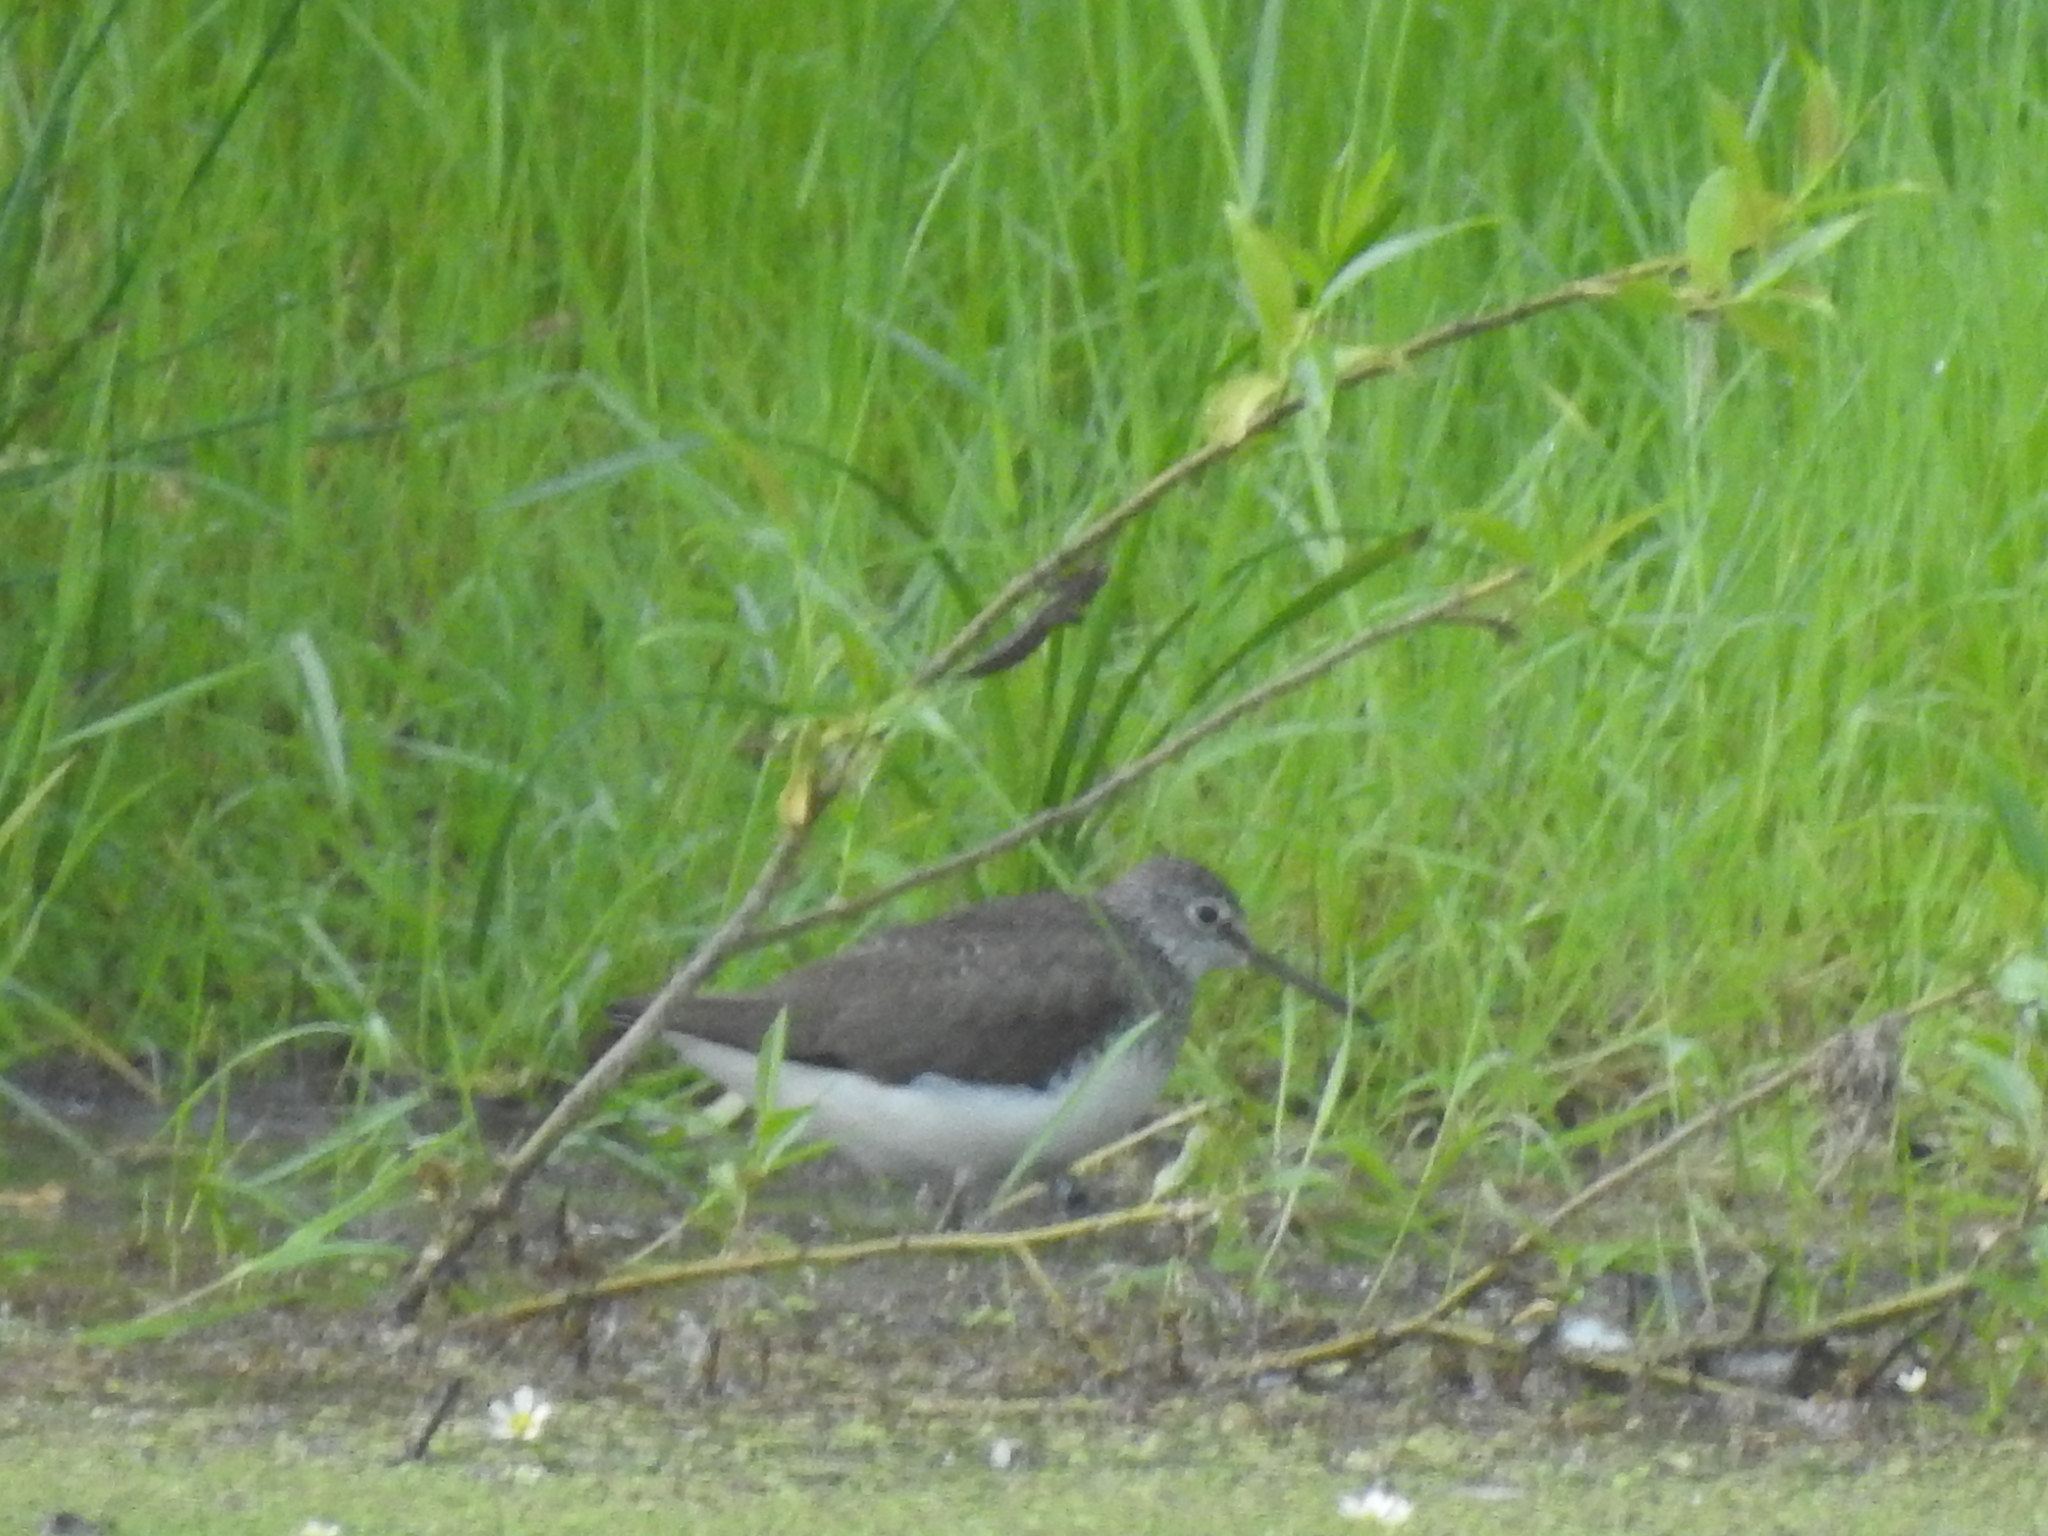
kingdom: Animalia
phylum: Chordata
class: Aves
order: Charadriiformes
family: Scolopacidae
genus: Tringa
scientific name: Tringa ochropus
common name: Green sandpiper
